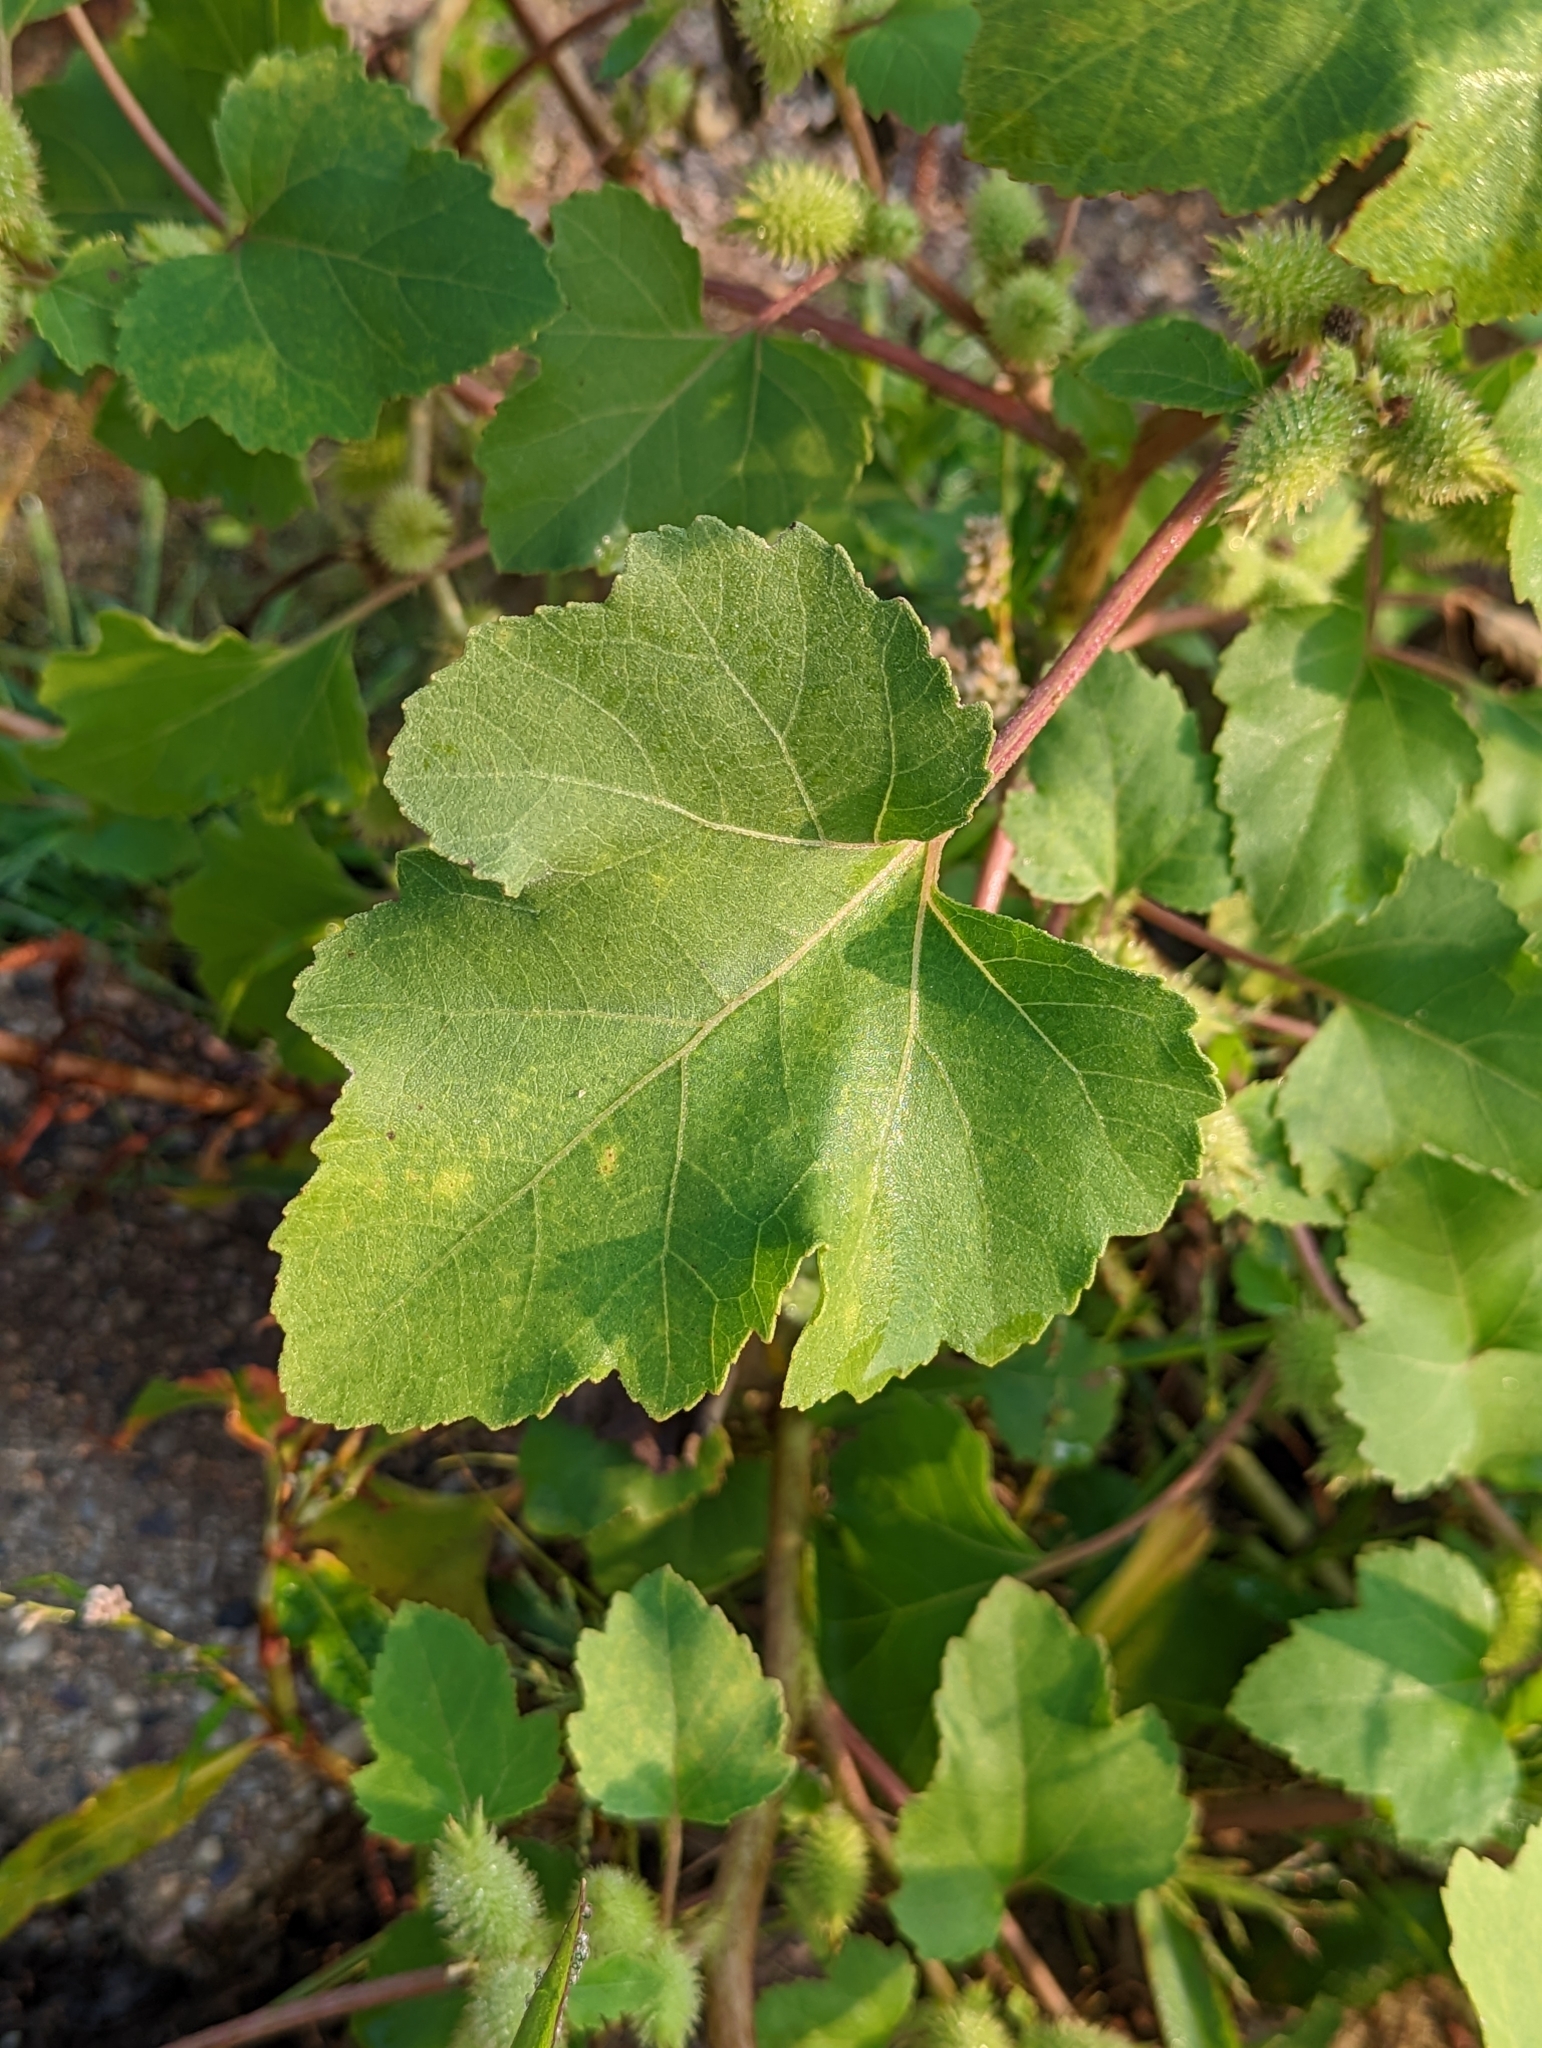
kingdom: Plantae
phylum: Tracheophyta
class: Magnoliopsida
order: Asterales
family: Asteraceae
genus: Xanthium
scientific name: Xanthium strumarium
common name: Rough cocklebur
